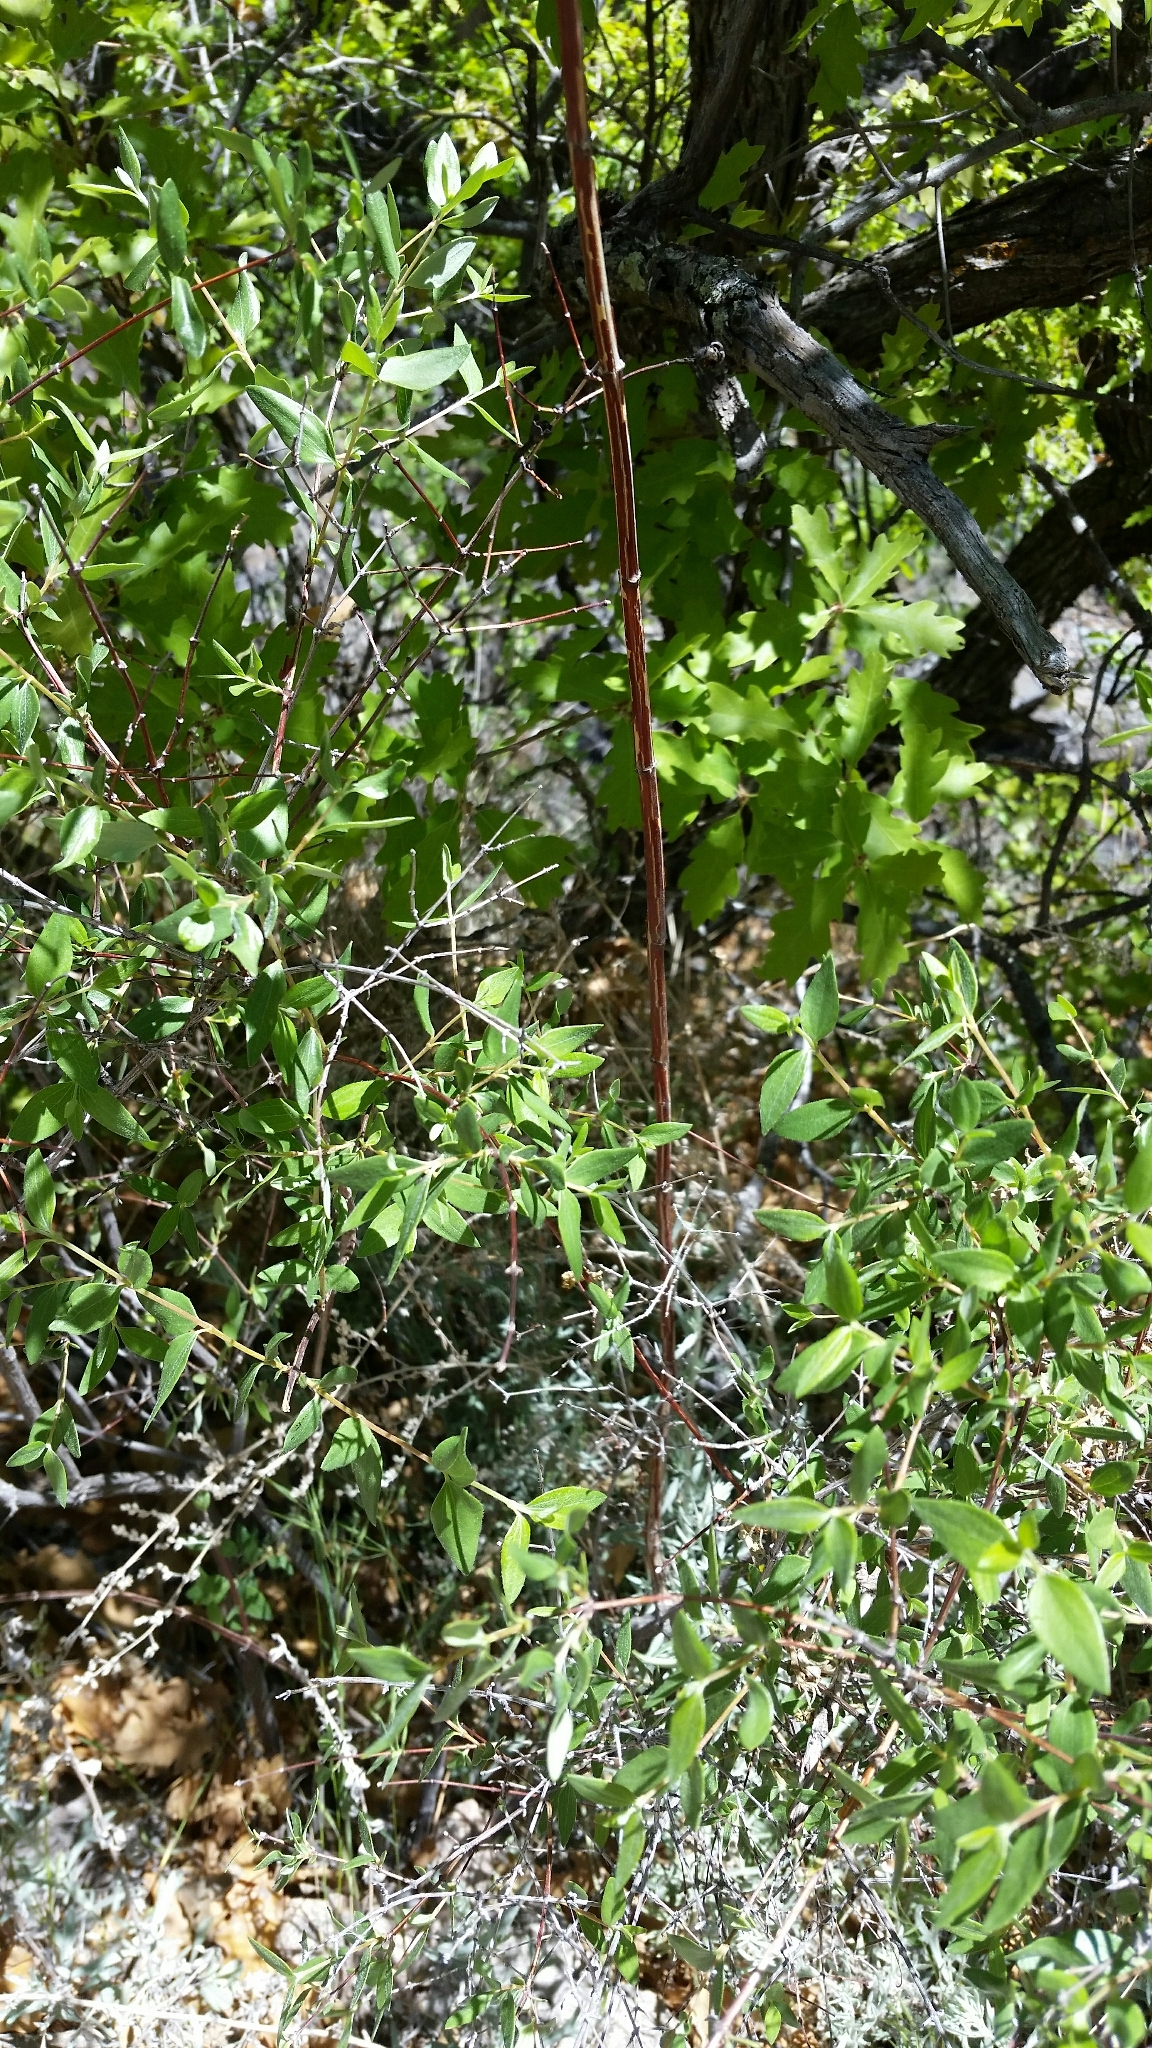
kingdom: Plantae
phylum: Tracheophyta
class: Magnoliopsida
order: Cornales
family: Hydrangeaceae
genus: Philadelphus
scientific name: Philadelphus microphyllus
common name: Desert mock orange
